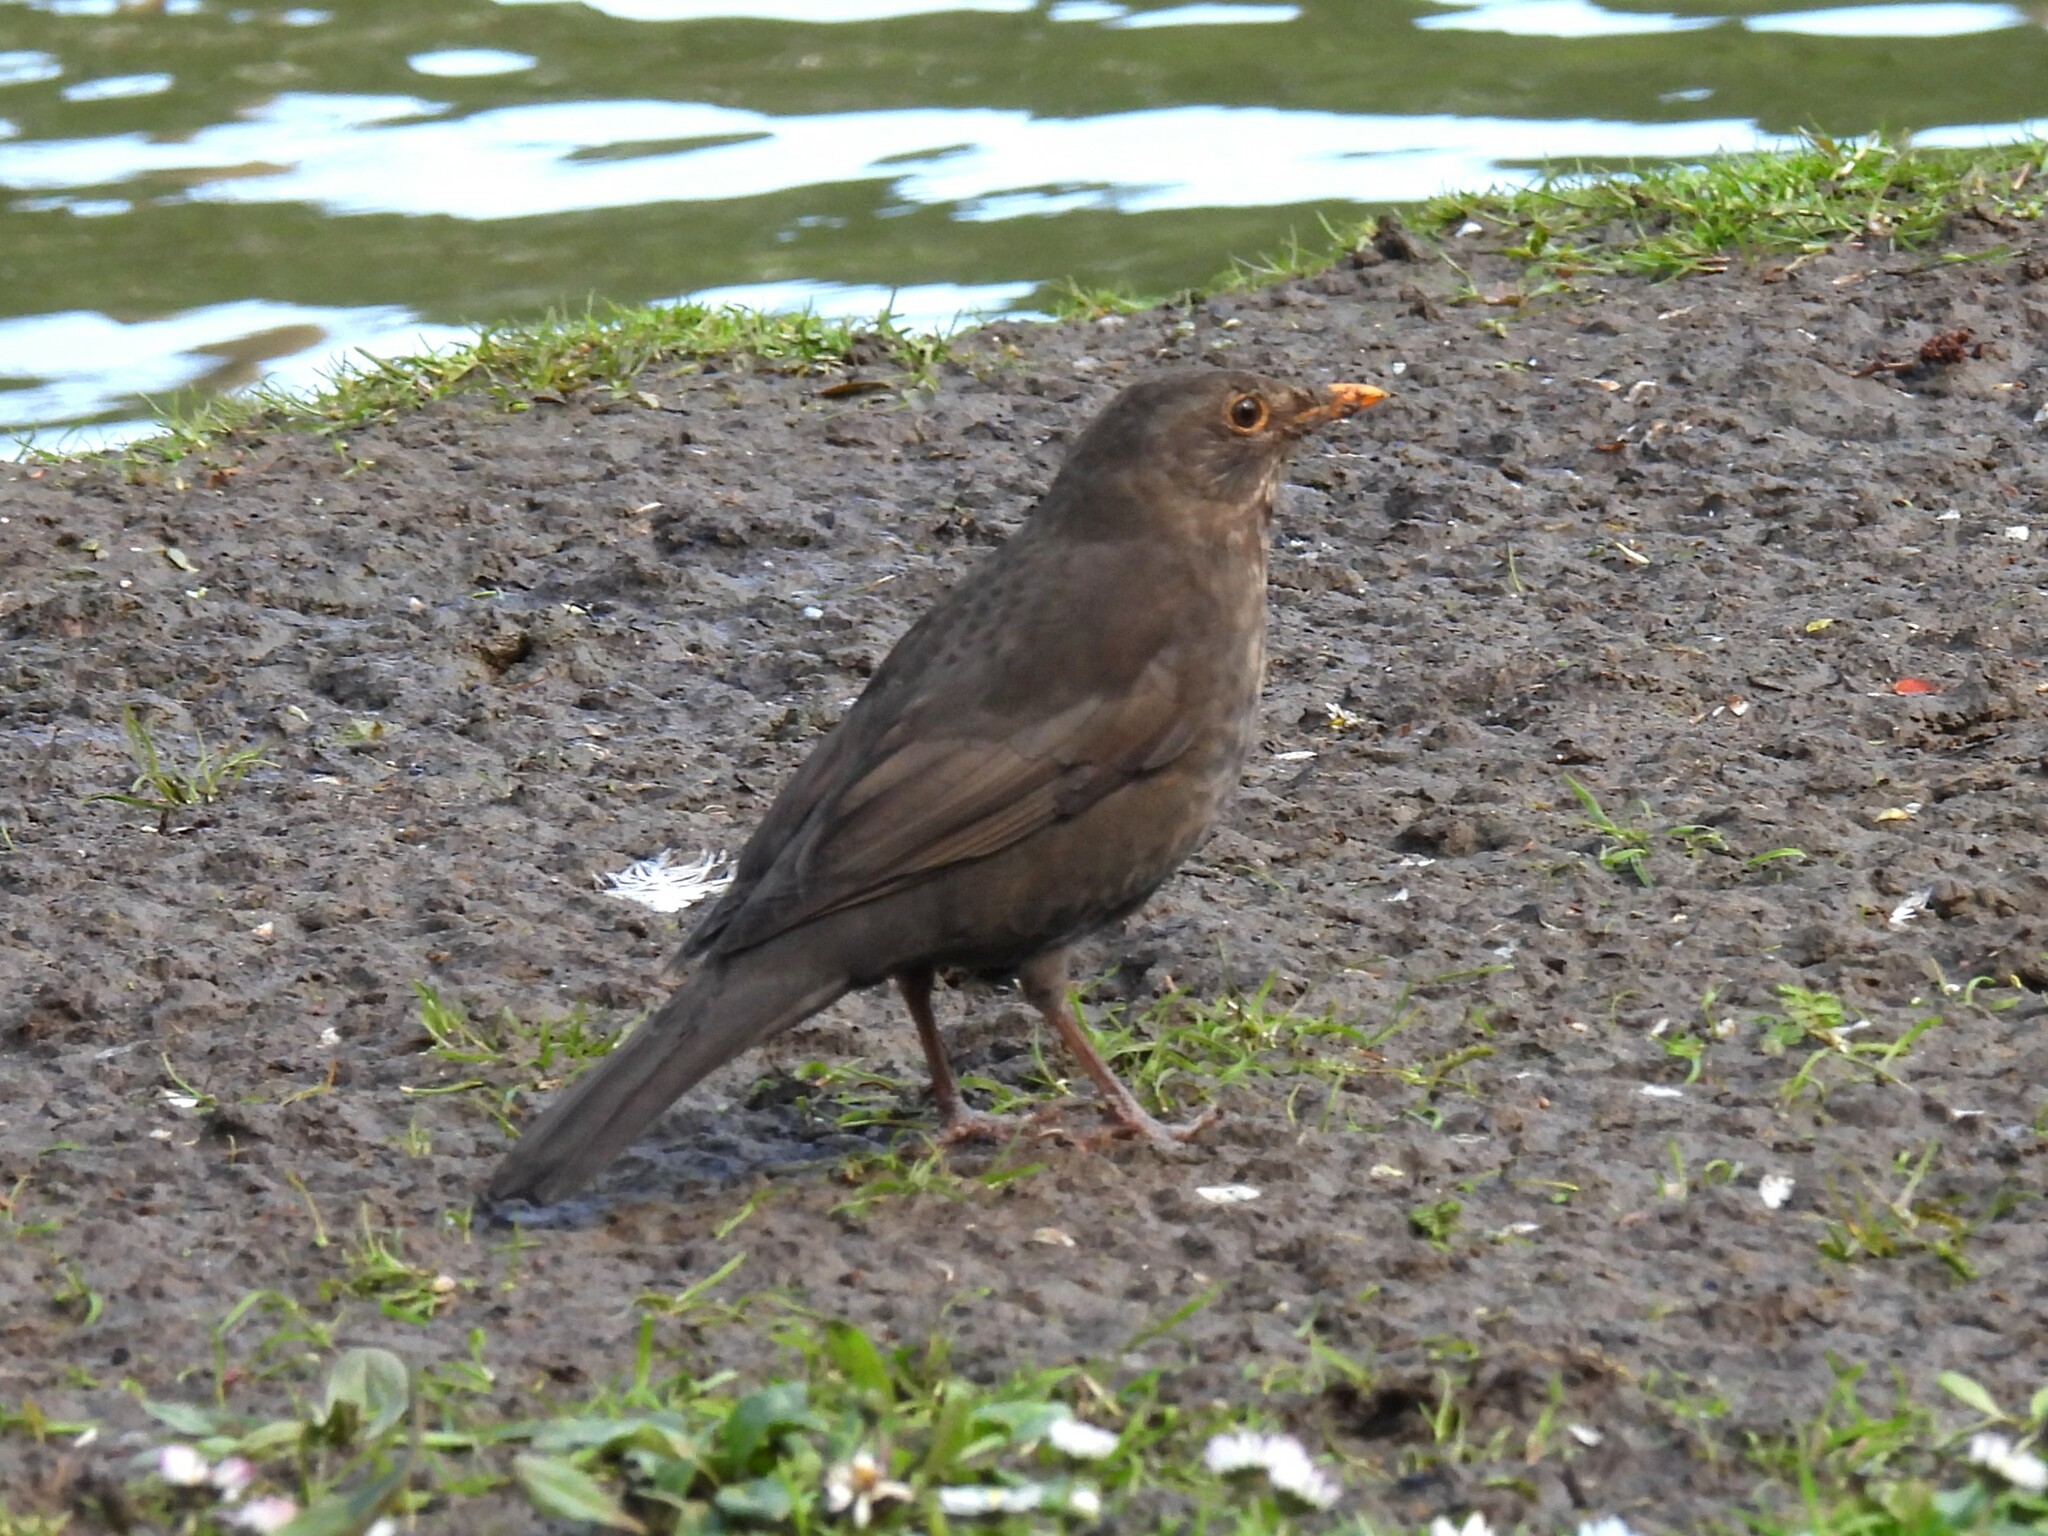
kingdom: Animalia
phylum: Chordata
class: Aves
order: Passeriformes
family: Turdidae
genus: Turdus
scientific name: Turdus merula
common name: Common blackbird
